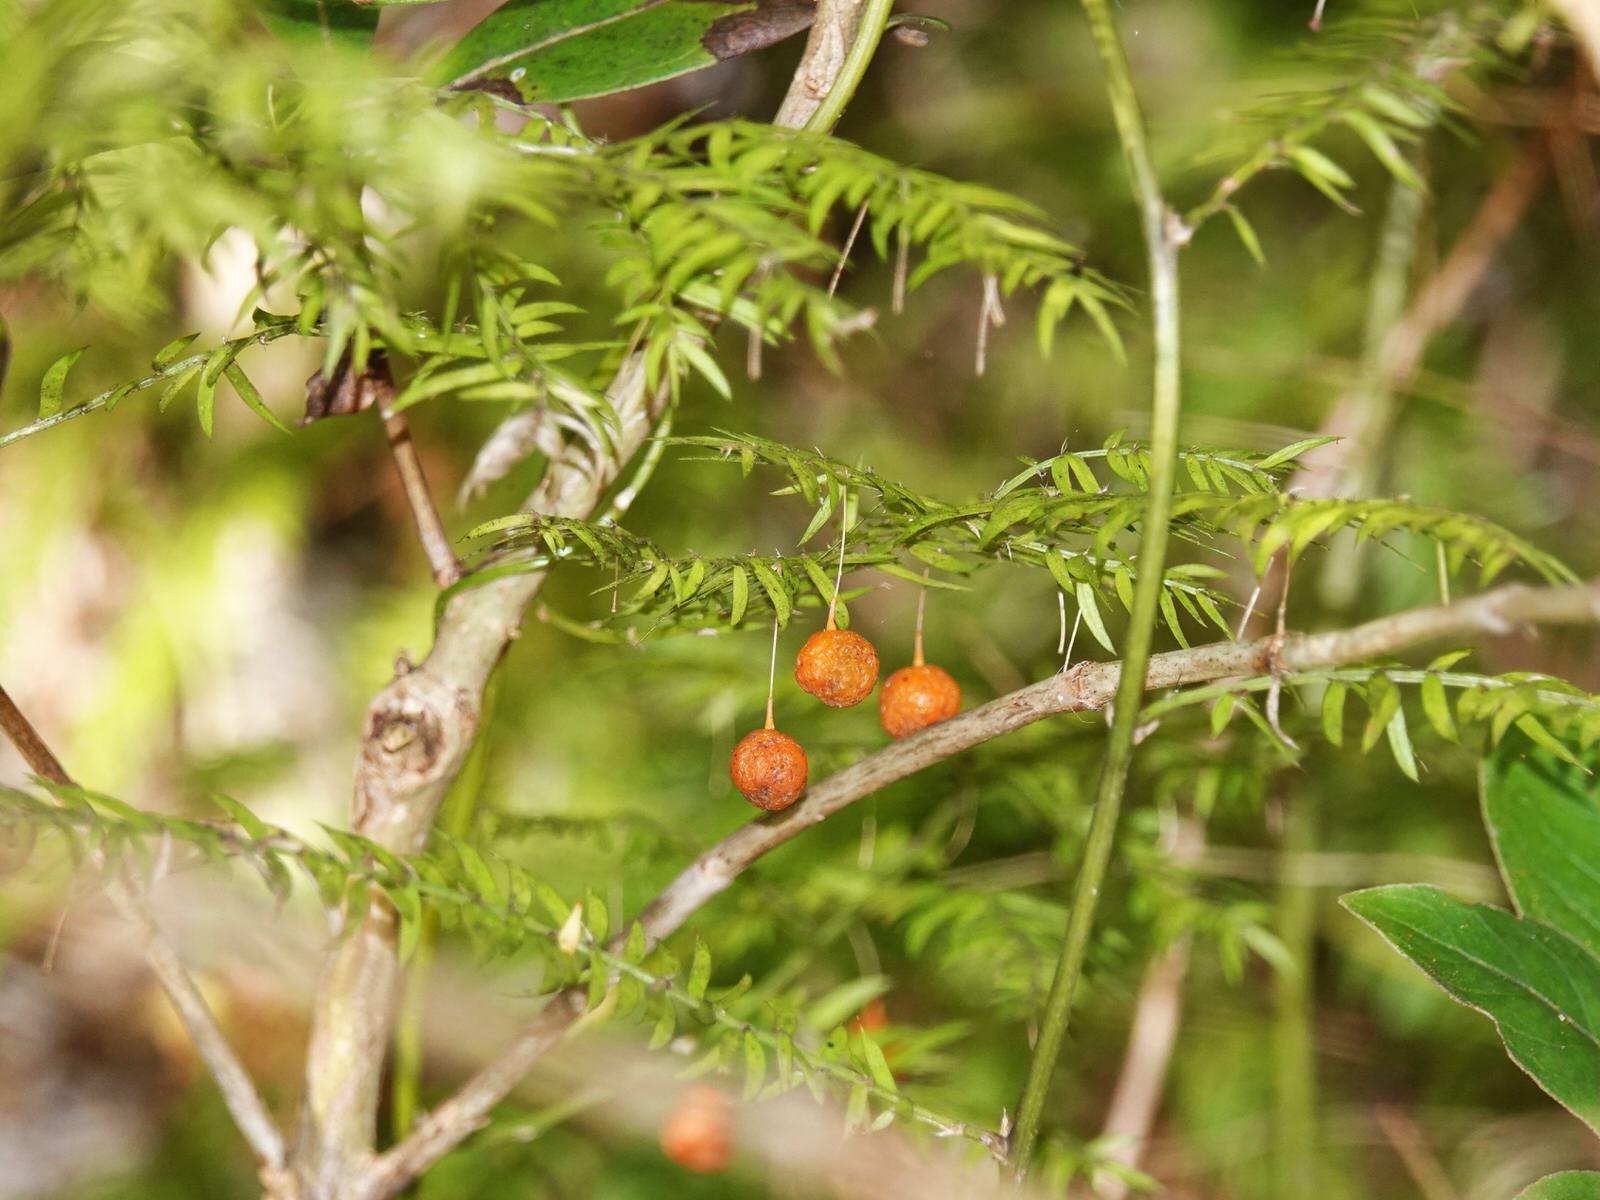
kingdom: Plantae
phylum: Tracheophyta
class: Liliopsida
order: Asparagales
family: Asparagaceae
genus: Asparagus
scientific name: Asparagus scandens
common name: Asparagus-fern
